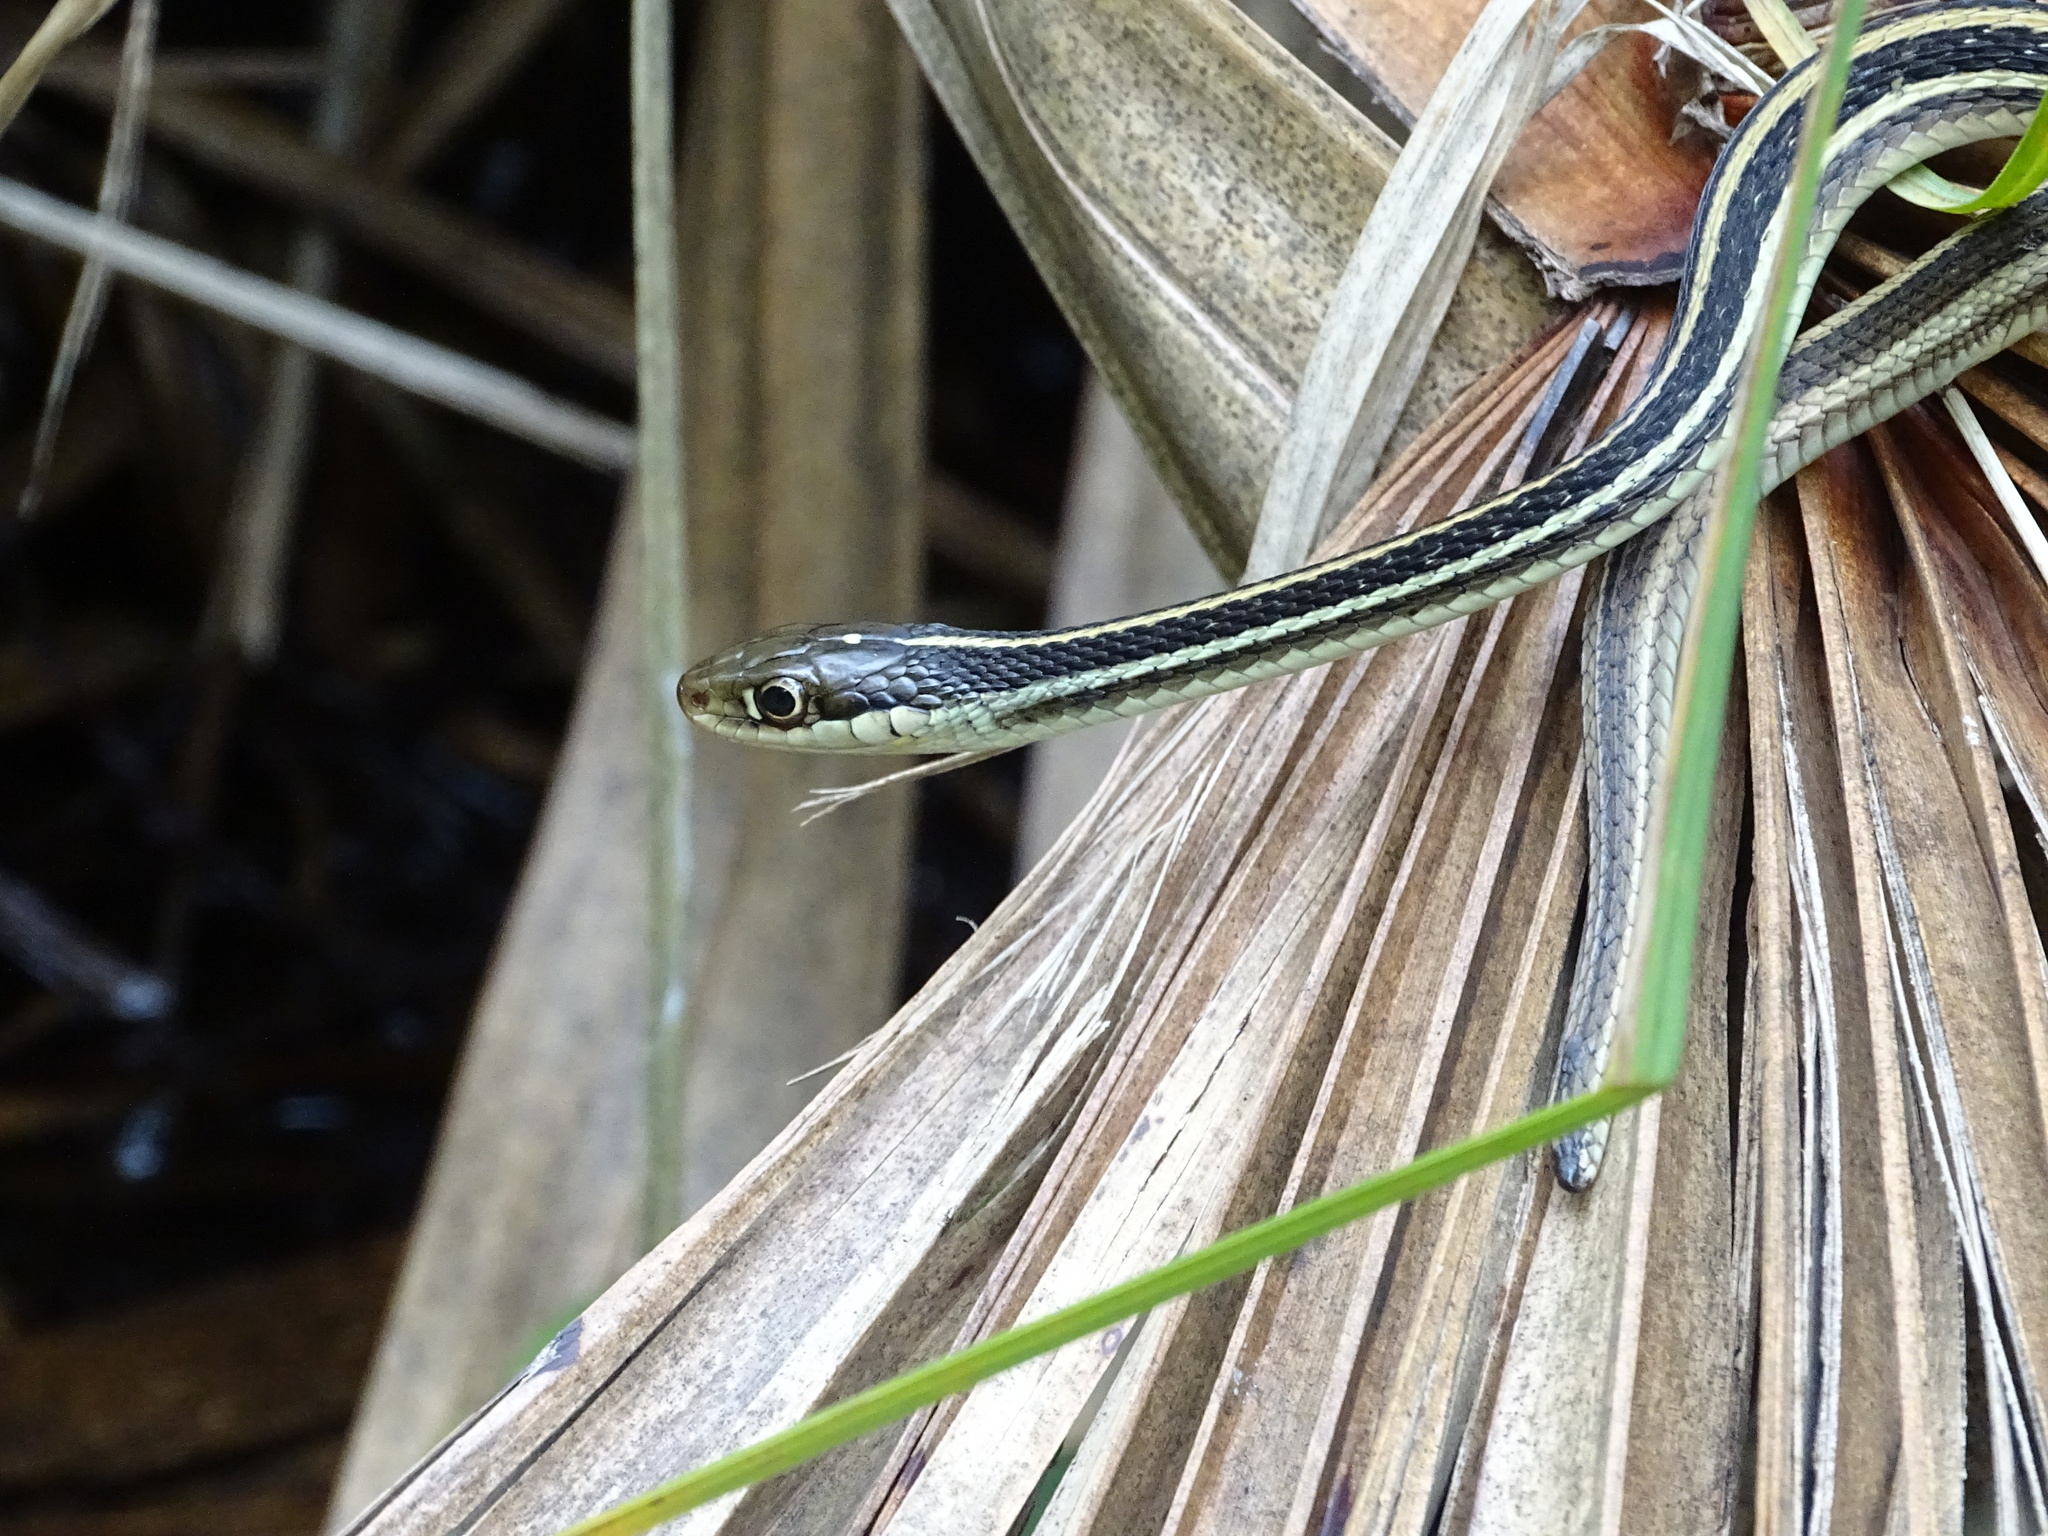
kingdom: Animalia
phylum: Chordata
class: Squamata
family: Colubridae
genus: Thamnophis
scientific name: Thamnophis proximus
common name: Western ribbon snake
